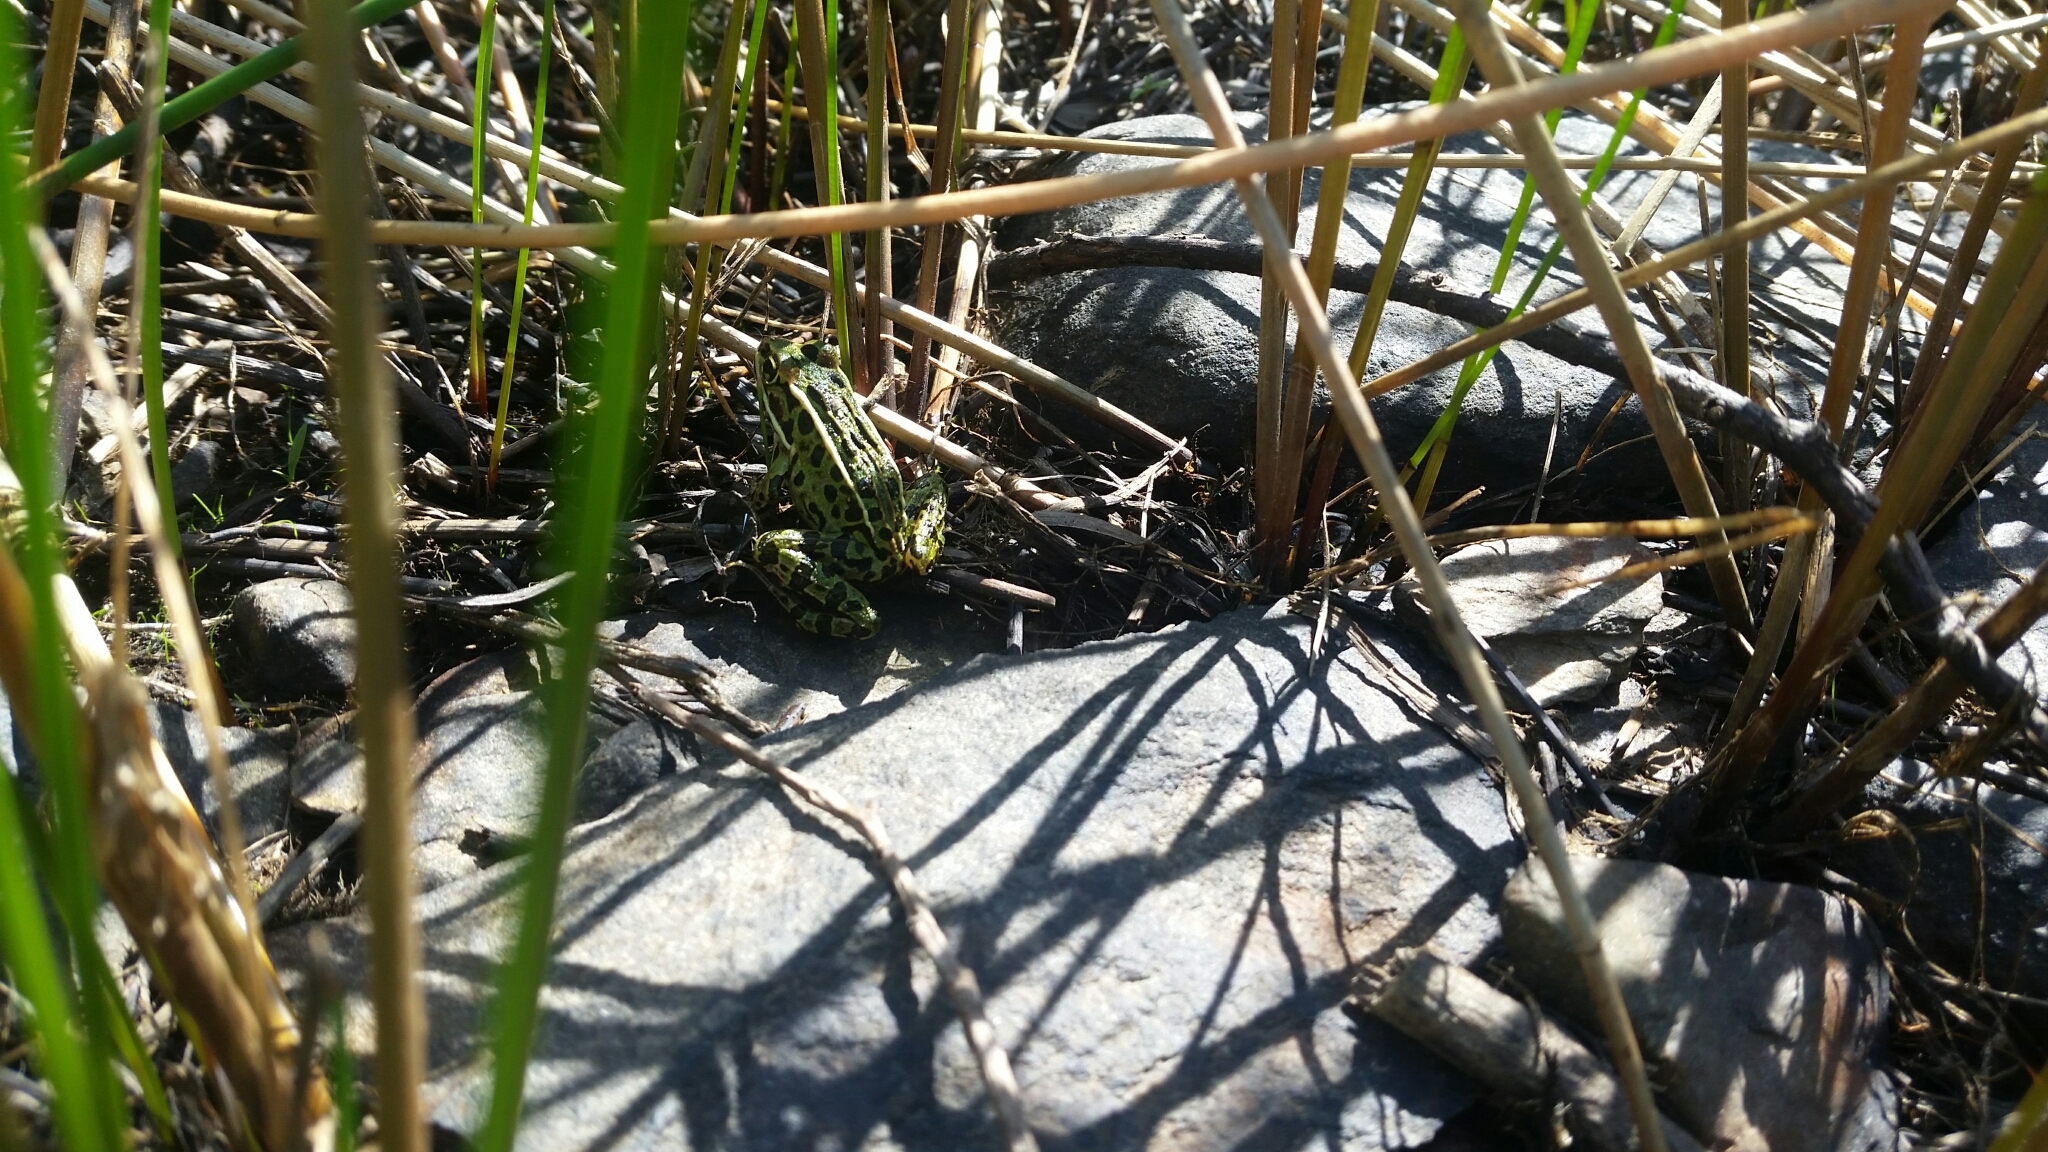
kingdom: Animalia
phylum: Chordata
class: Amphibia
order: Anura
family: Ranidae
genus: Lithobates
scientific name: Lithobates pipiens
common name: Northern leopard frog
